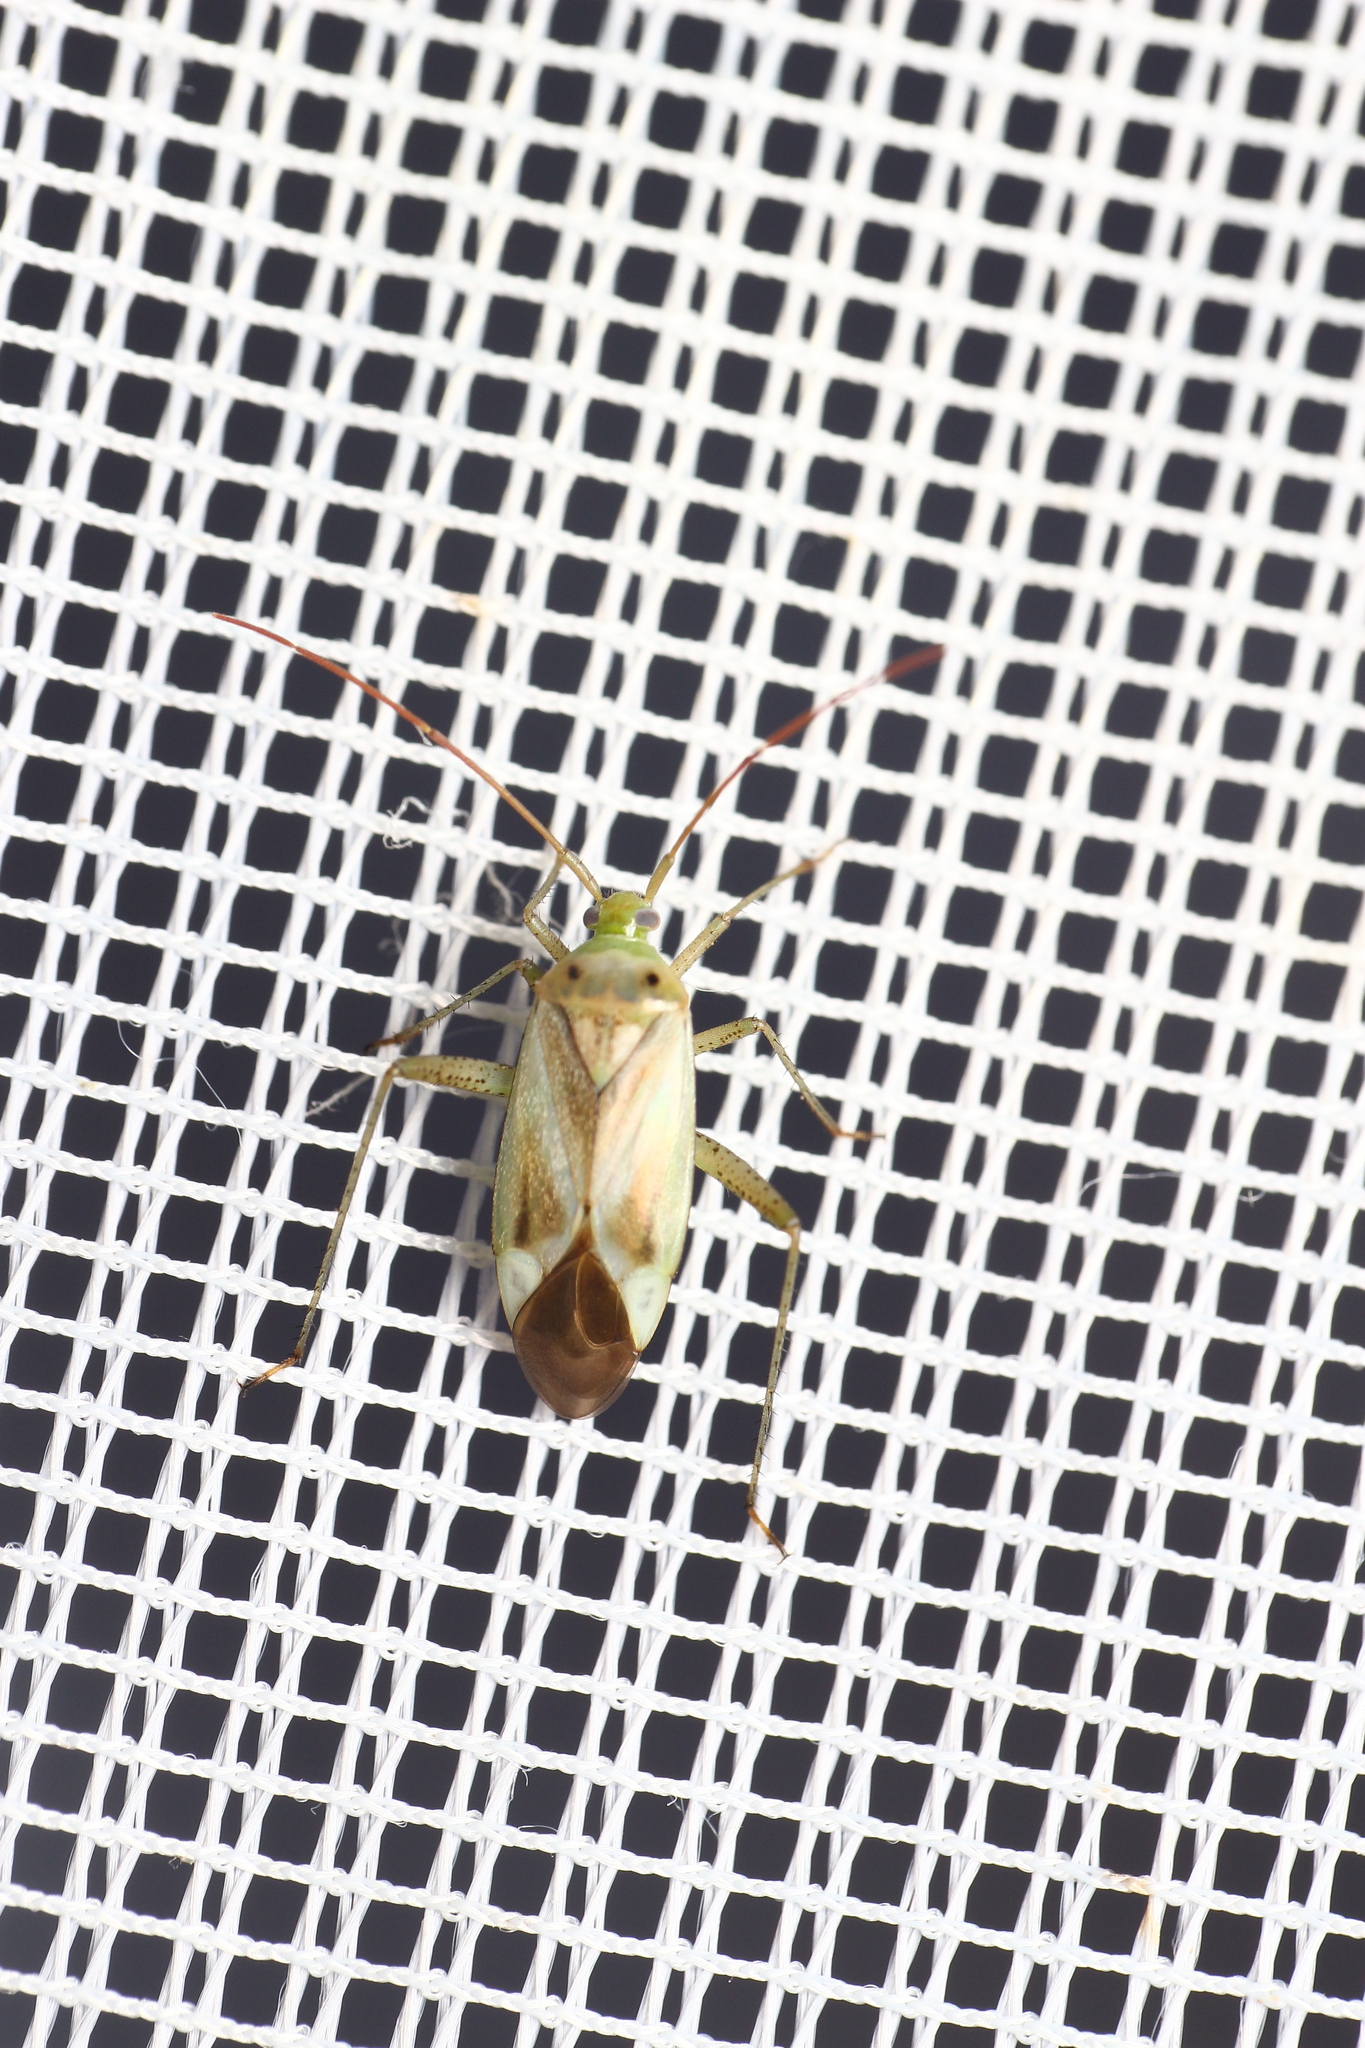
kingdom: Animalia
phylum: Arthropoda
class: Insecta
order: Hemiptera
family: Miridae
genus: Adelphocoris
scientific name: Adelphocoris lineolatus
